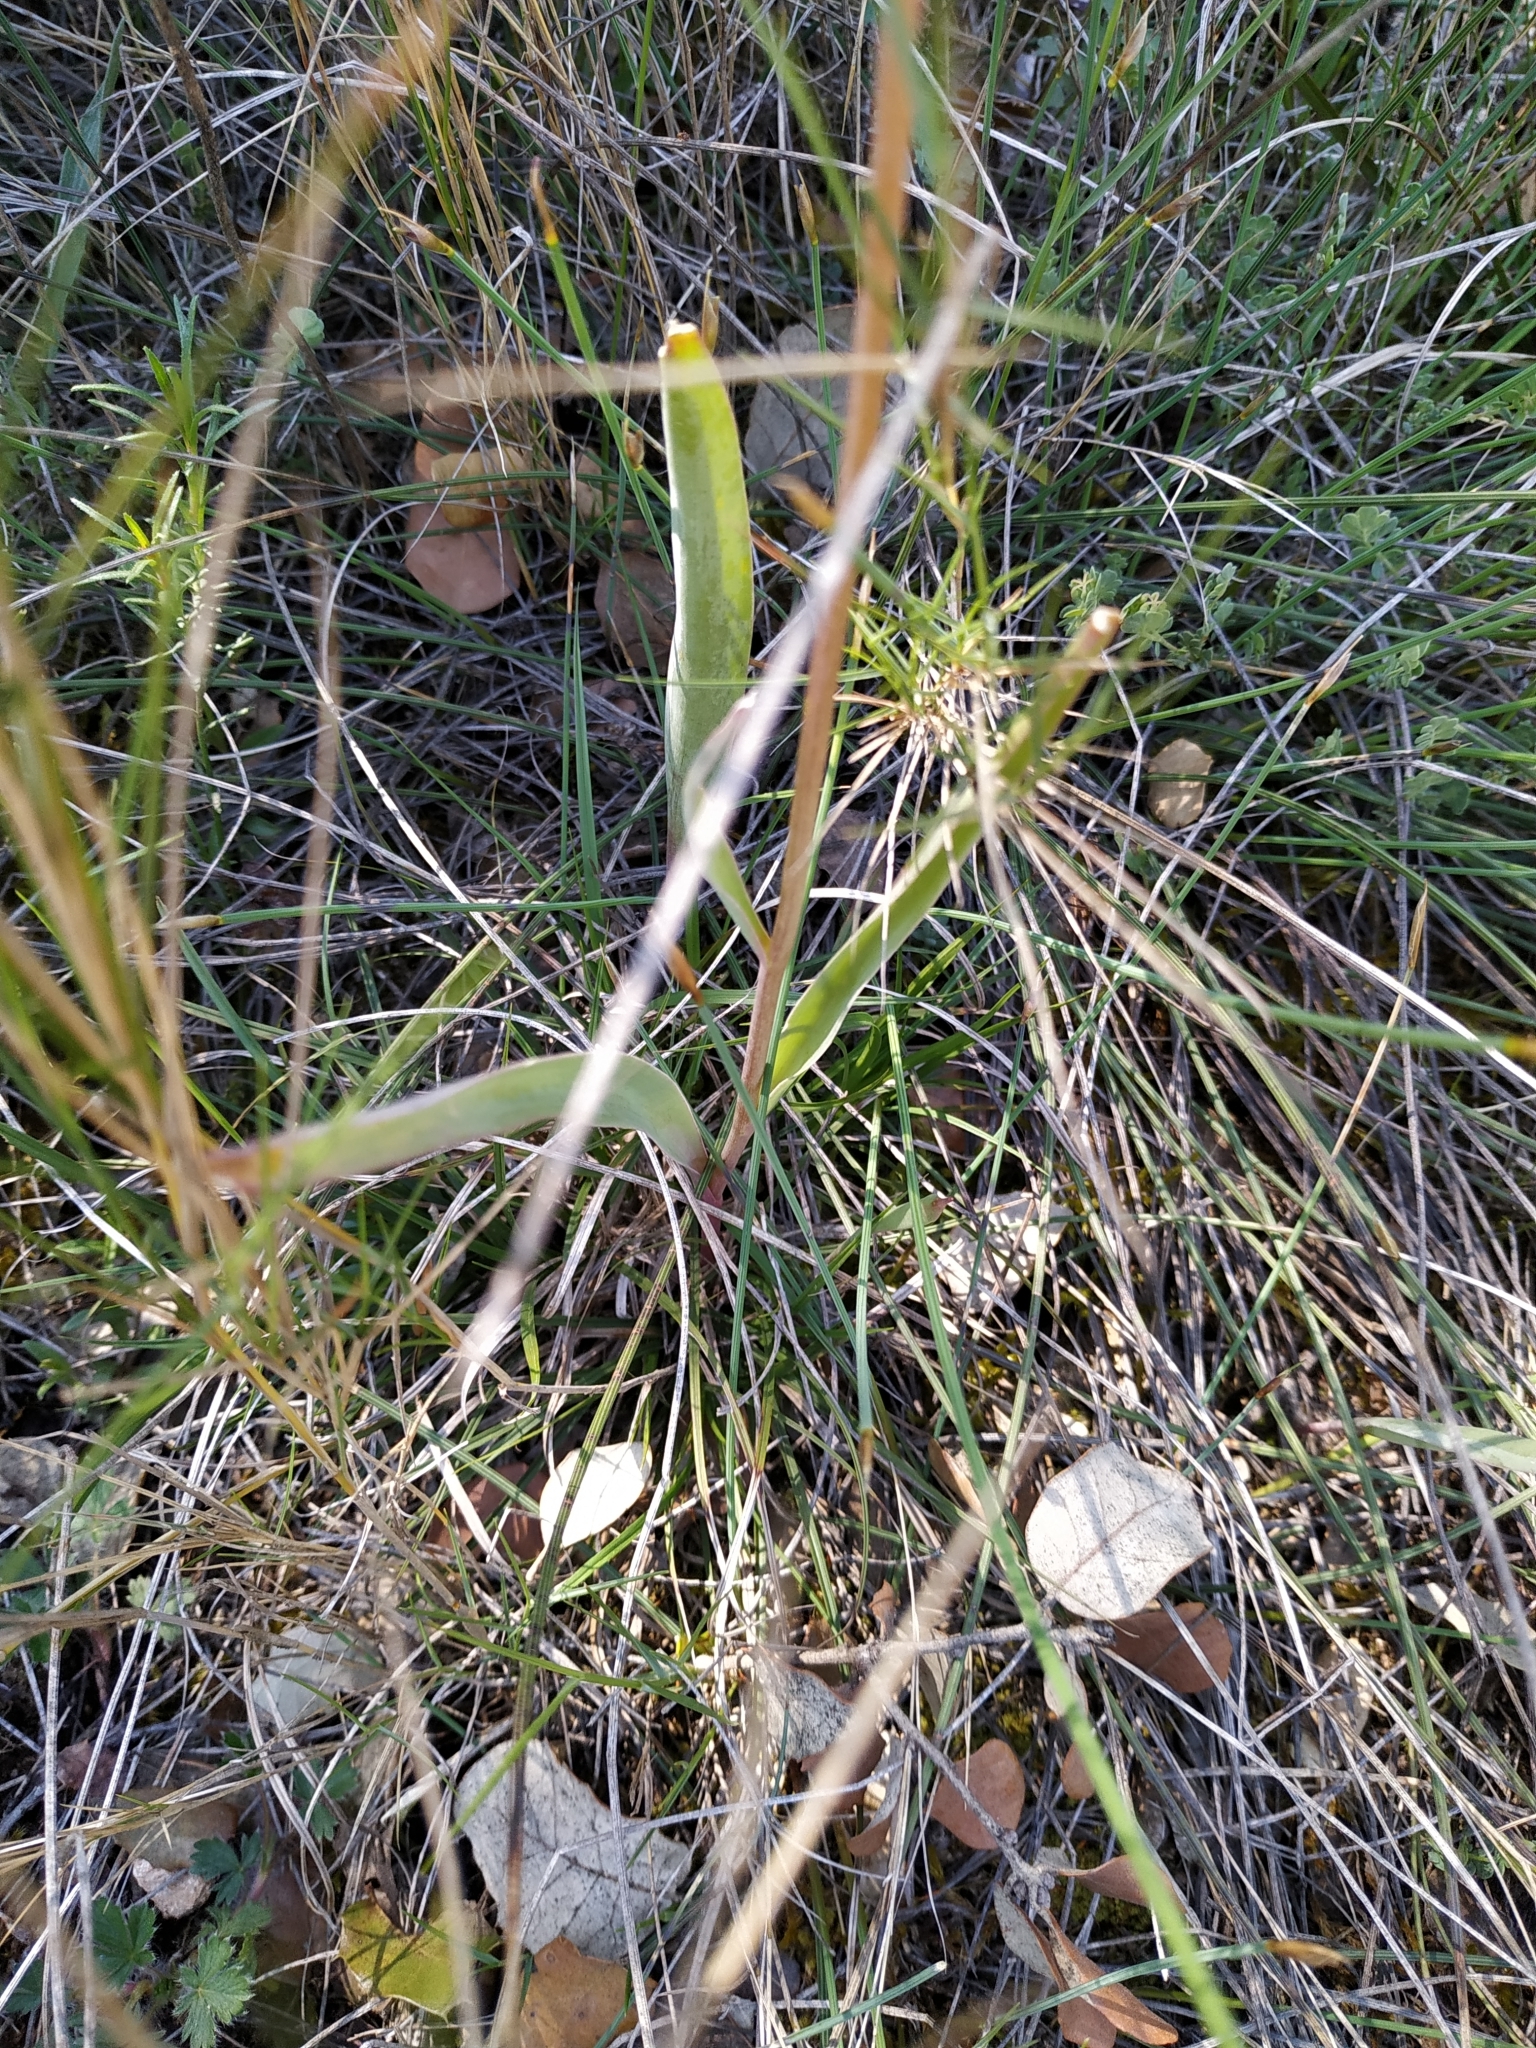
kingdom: Plantae
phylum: Tracheophyta
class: Liliopsida
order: Liliales
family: Liliaceae
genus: Tulipa
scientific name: Tulipa sylvestris
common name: Wild tulip
